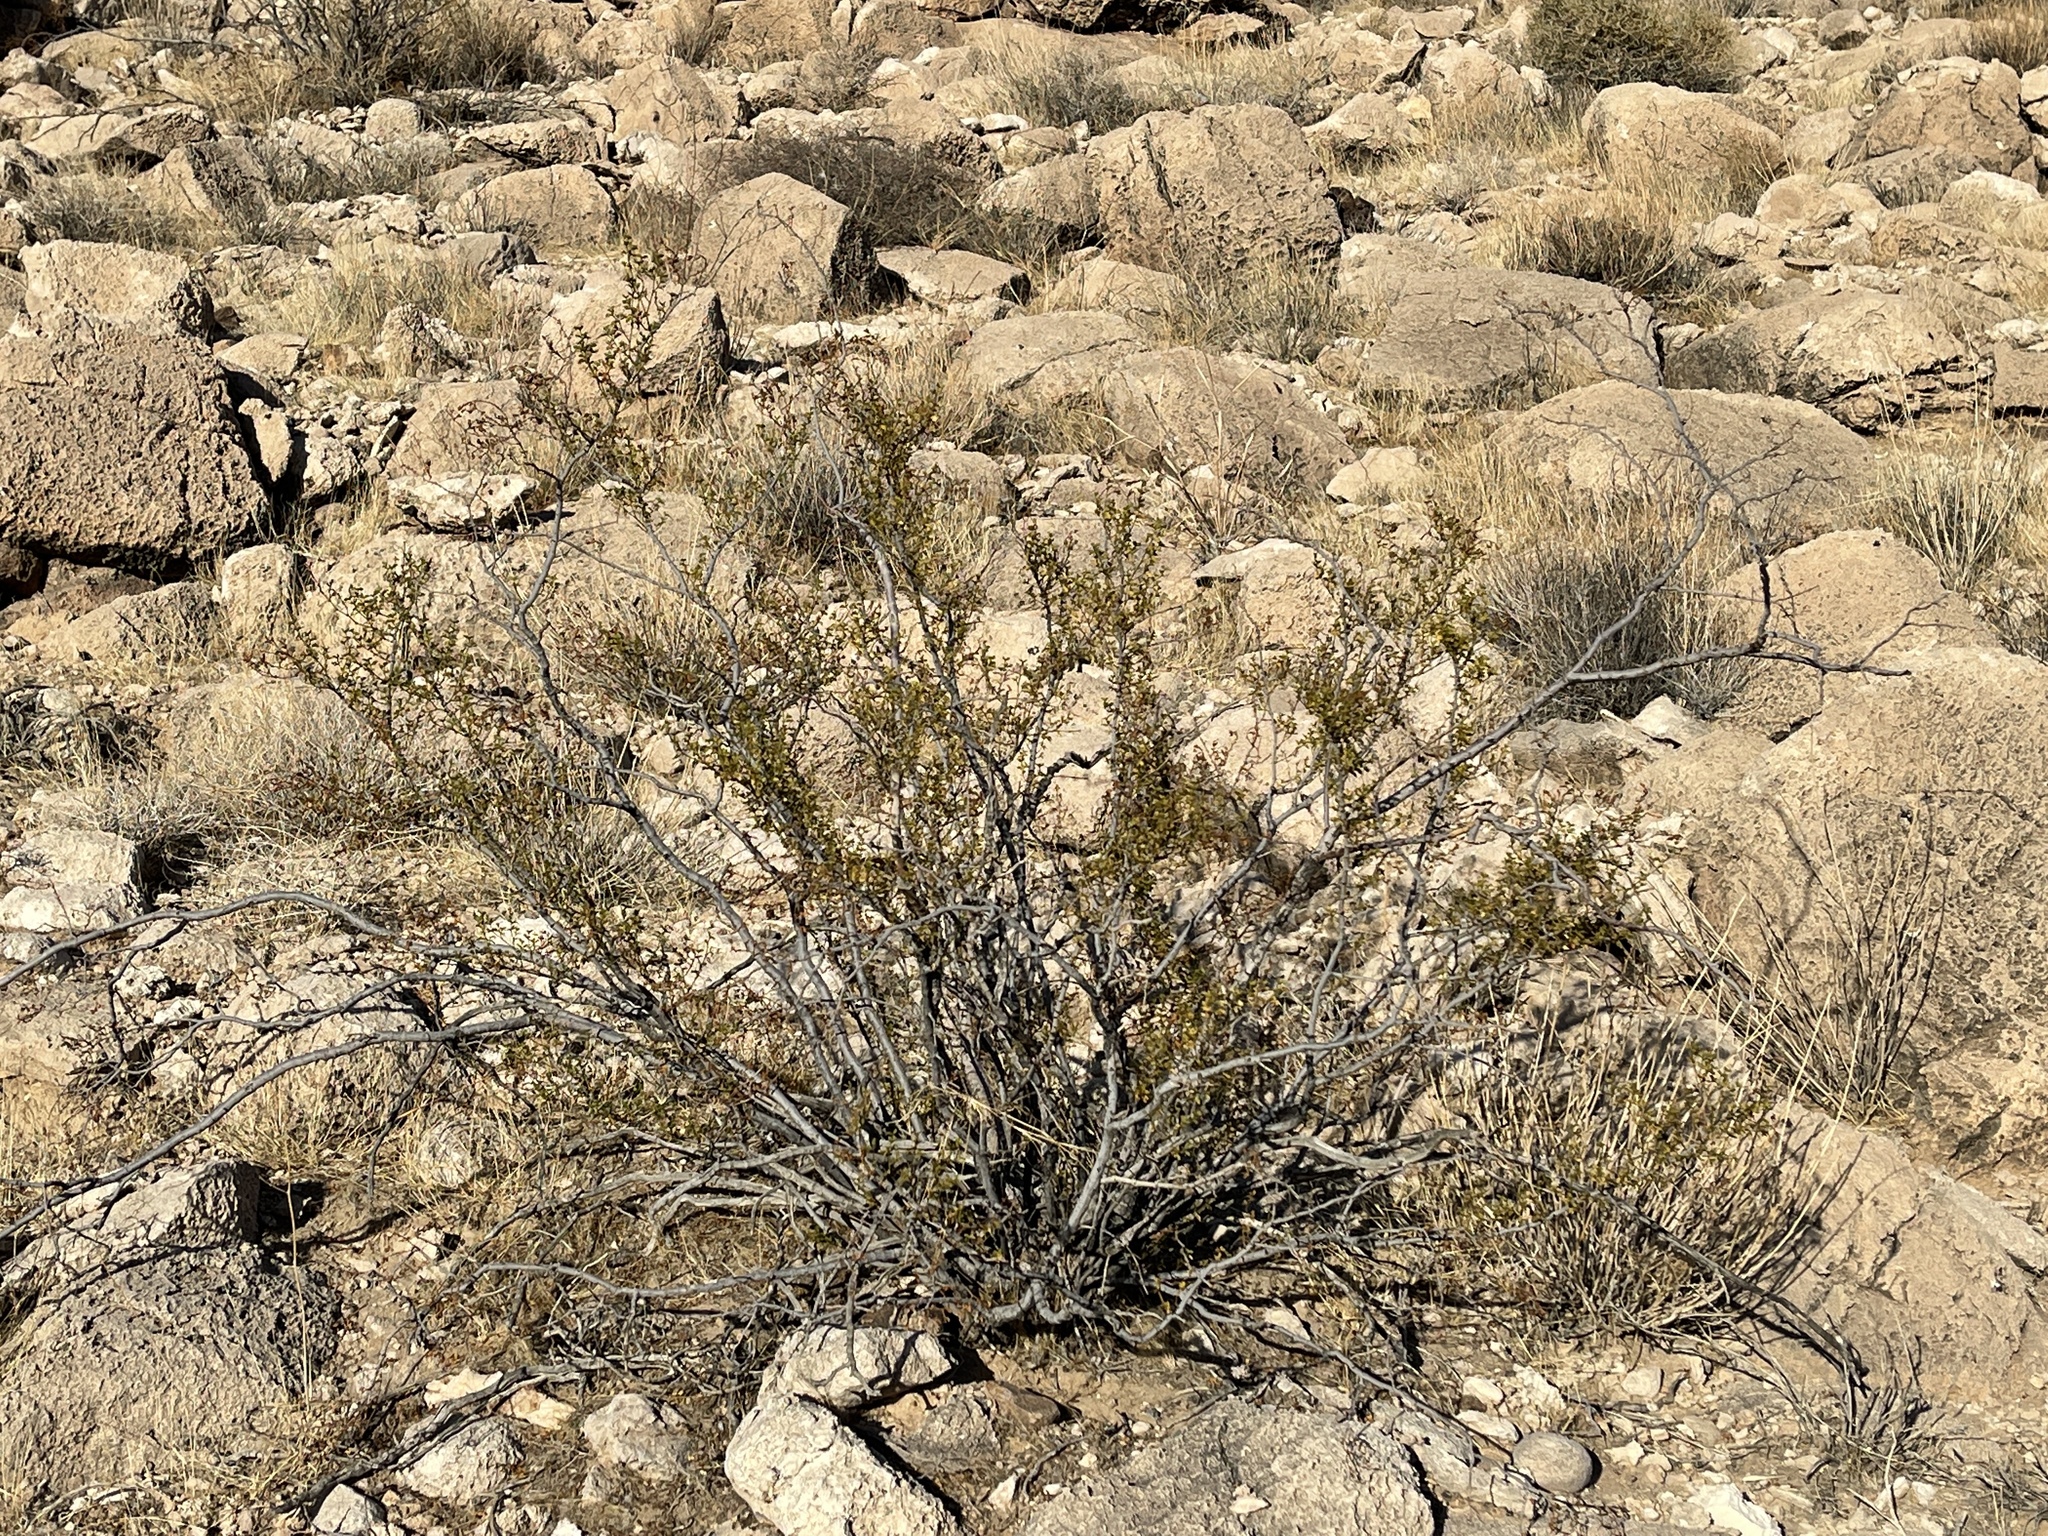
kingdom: Plantae
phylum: Tracheophyta
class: Magnoliopsida
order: Zygophyllales
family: Zygophyllaceae
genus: Larrea
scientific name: Larrea tridentata
